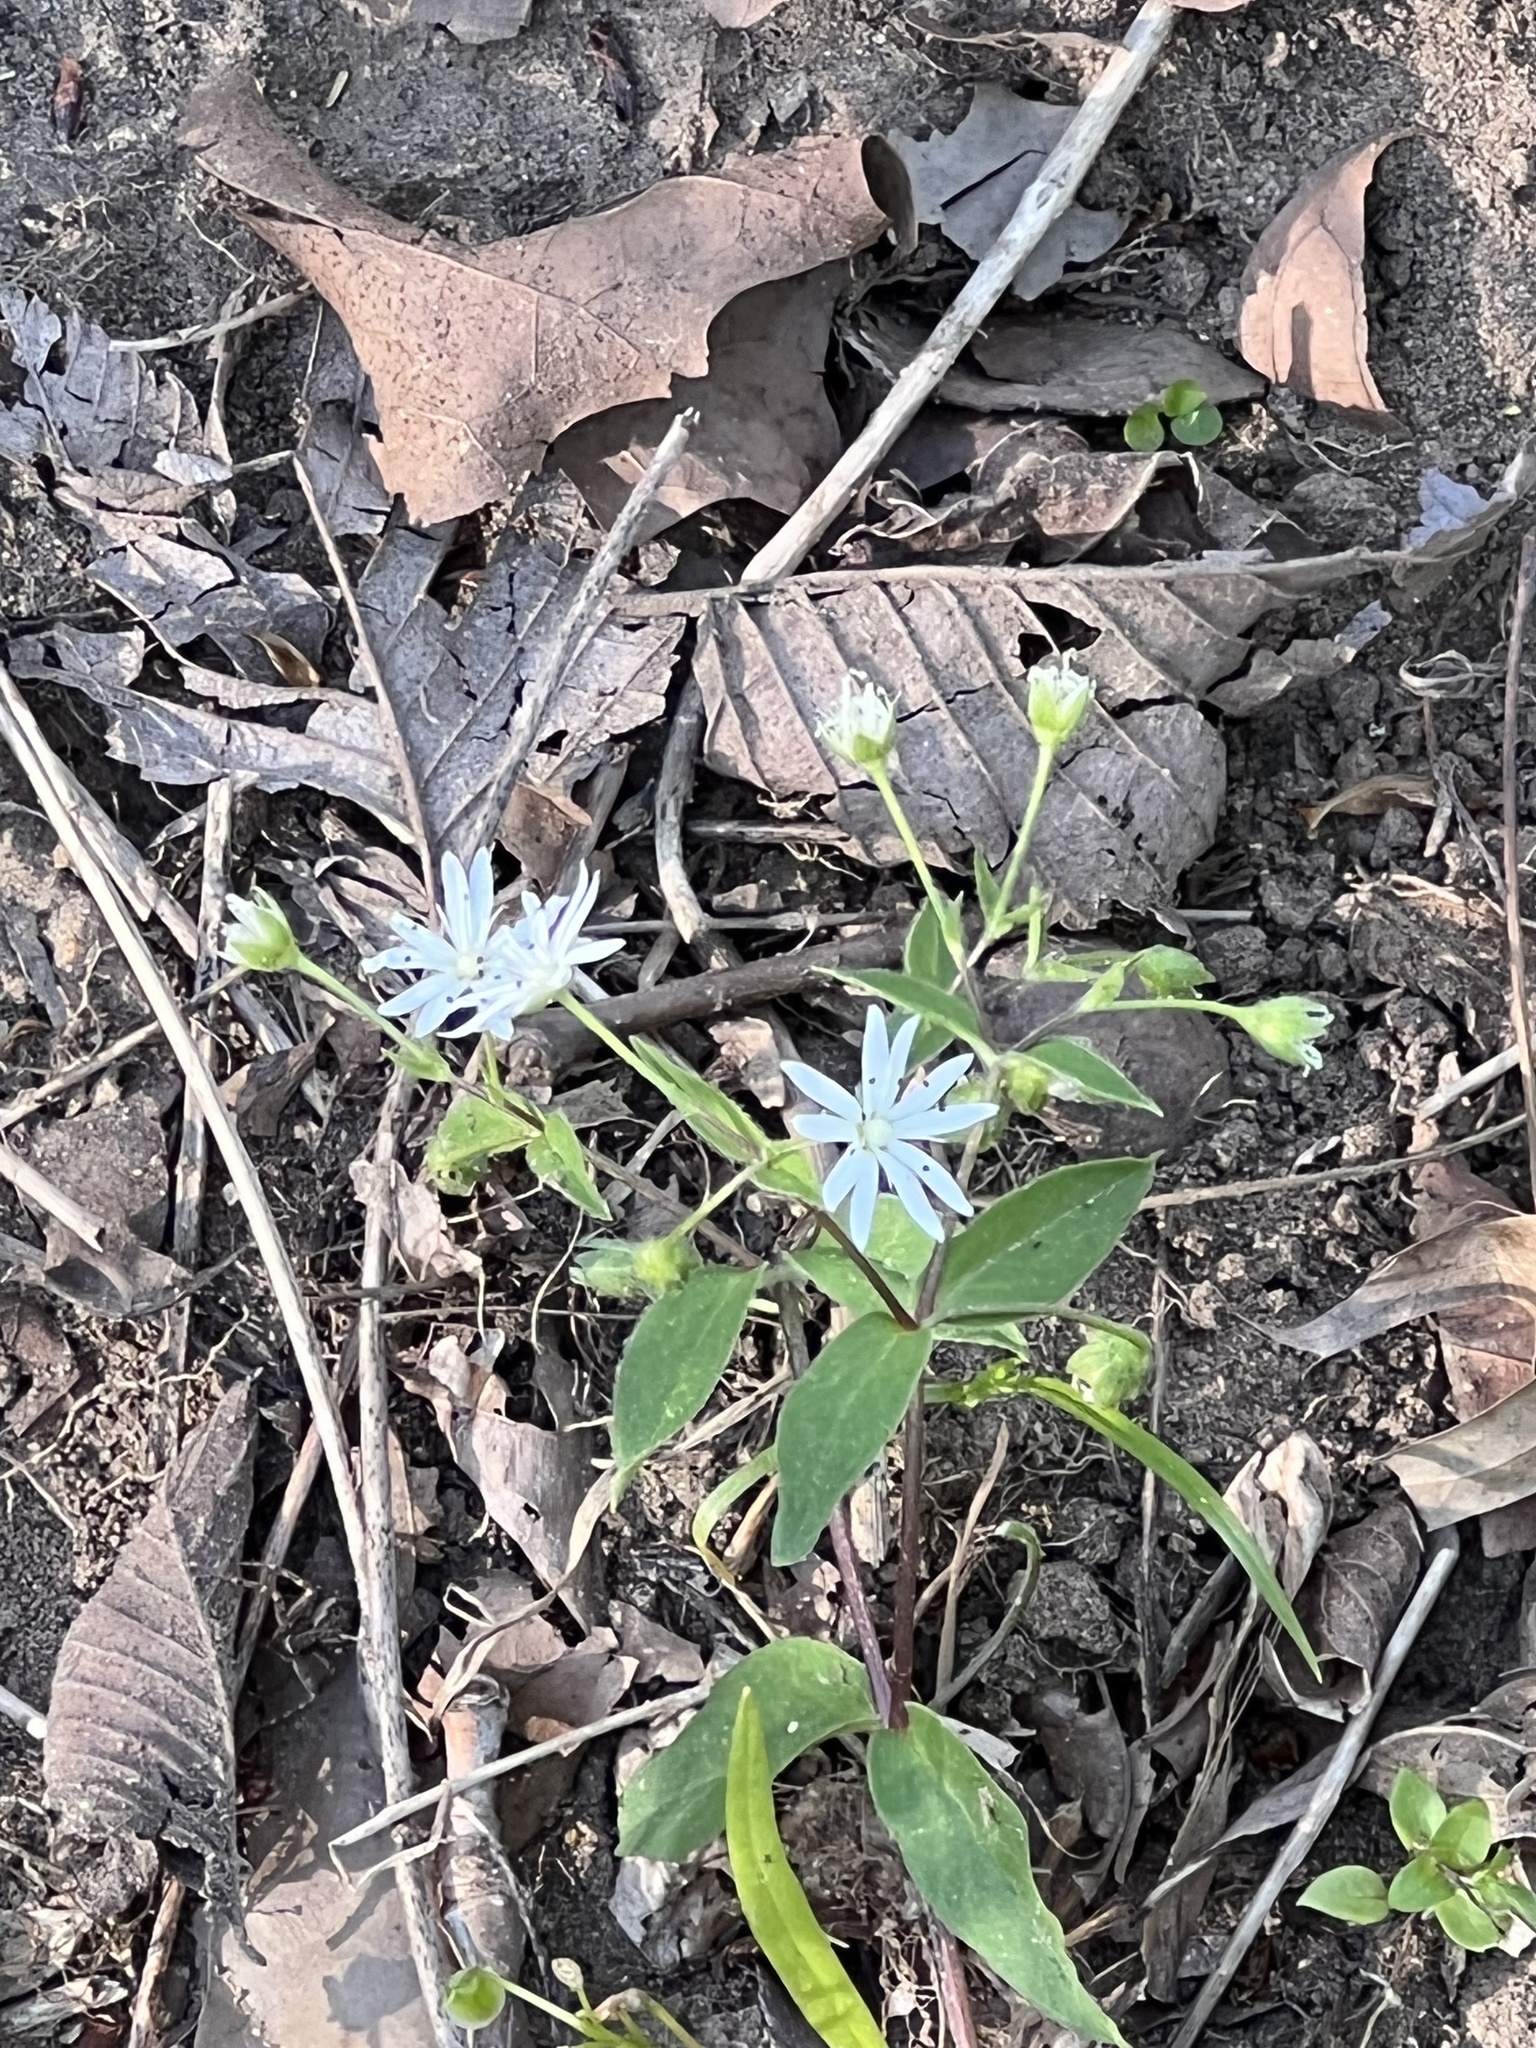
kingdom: Plantae
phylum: Tracheophyta
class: Magnoliopsida
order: Caryophyllales
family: Caryophyllaceae
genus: Stellaria
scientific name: Stellaria pubera
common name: Star chickweed
